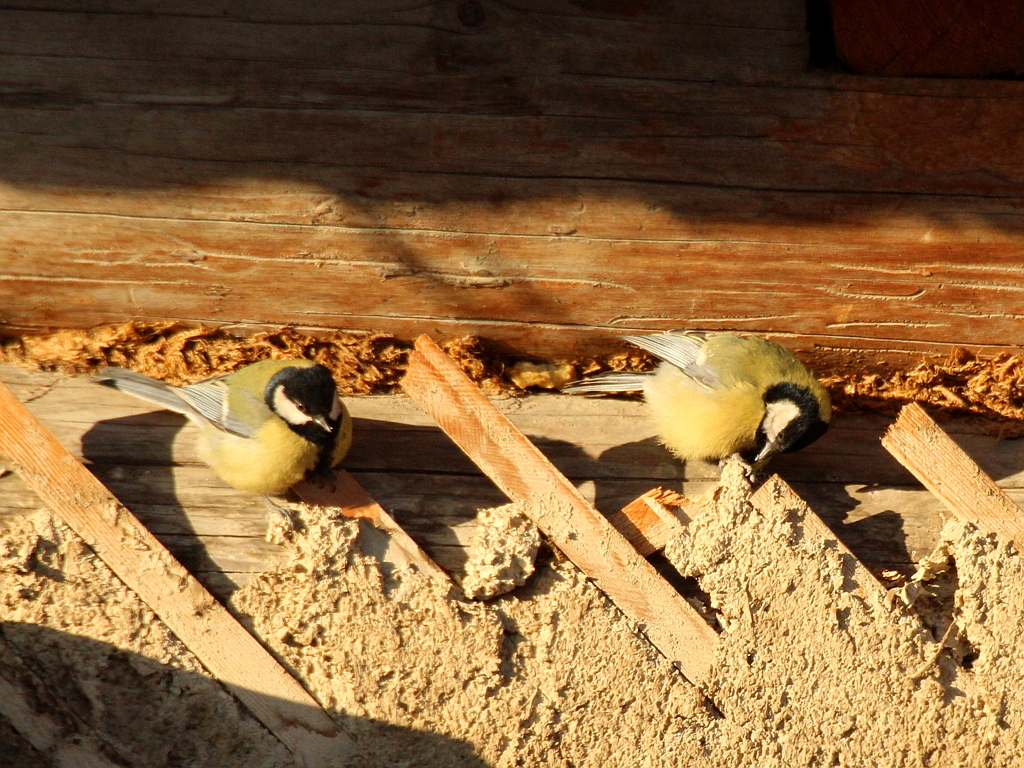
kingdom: Animalia
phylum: Chordata
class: Aves
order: Passeriformes
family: Paridae
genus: Parus
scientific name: Parus major
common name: Great tit
